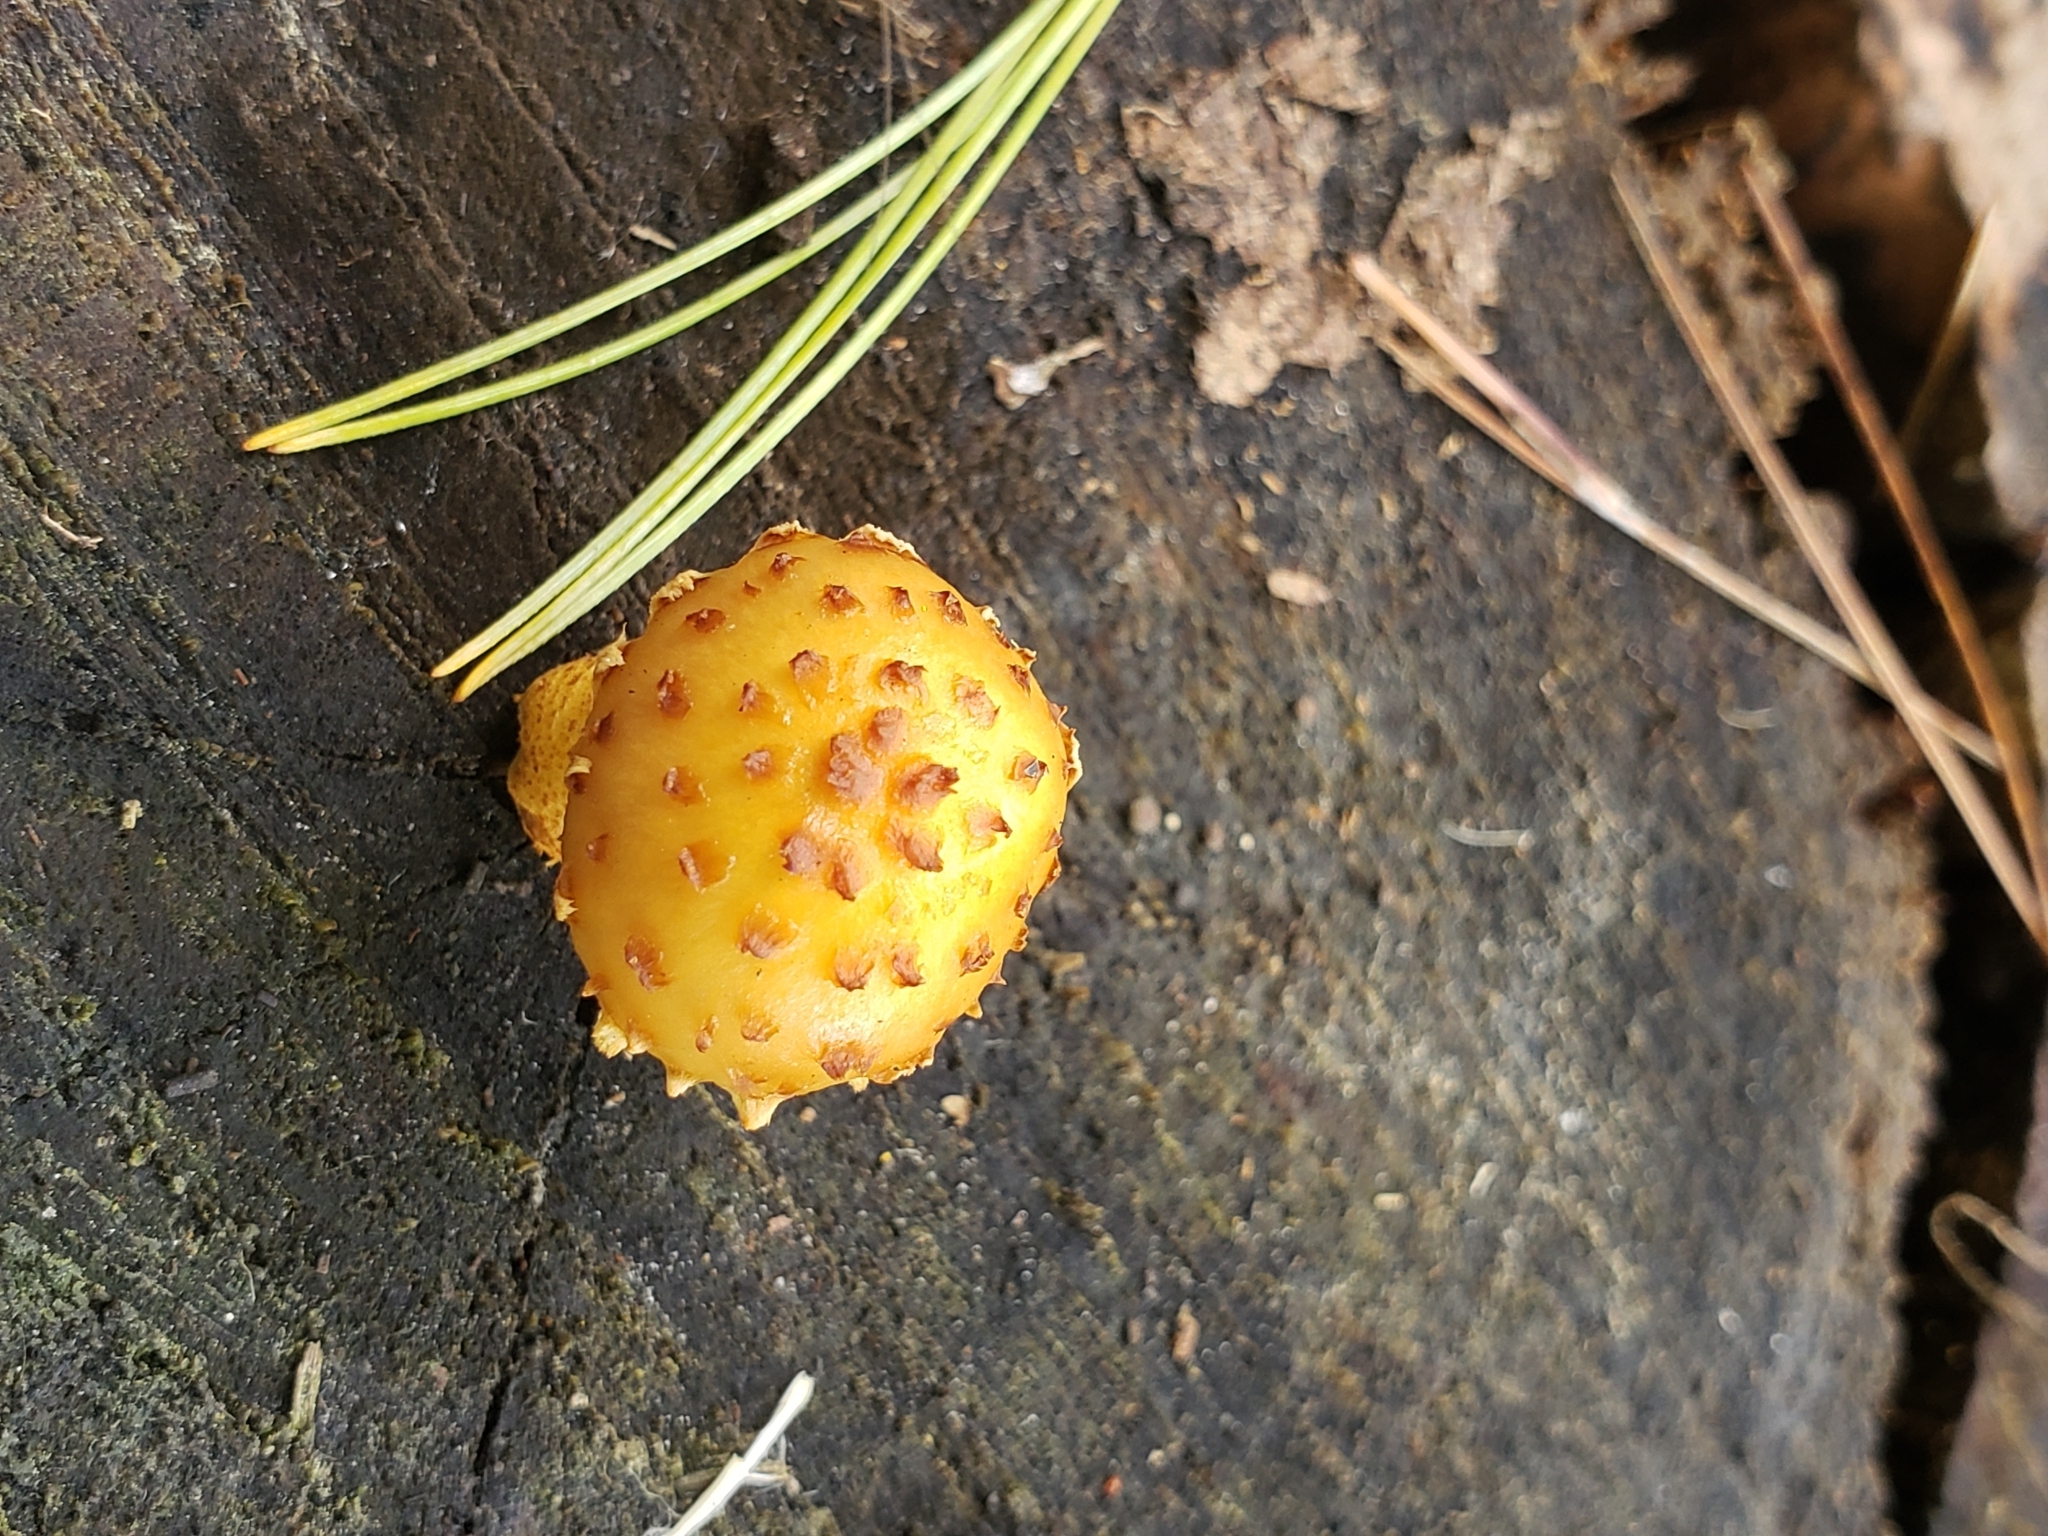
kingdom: Fungi
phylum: Basidiomycota
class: Agaricomycetes
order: Agaricales
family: Strophariaceae
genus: Pholiota
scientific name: Pholiota limonella
